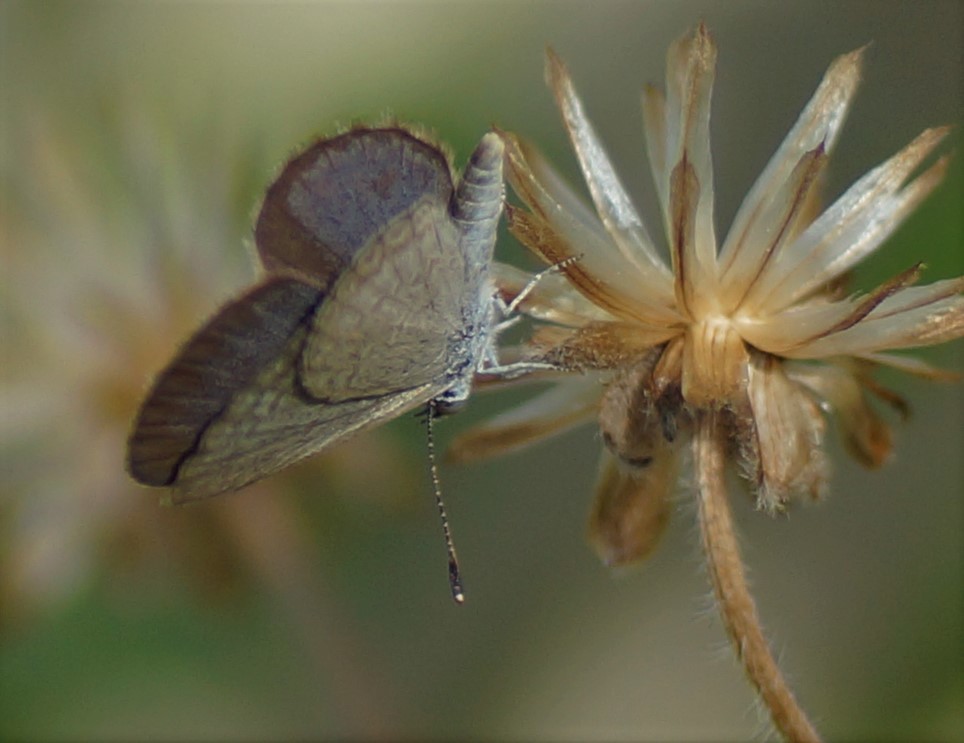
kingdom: Animalia
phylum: Arthropoda
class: Insecta
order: Lepidoptera
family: Lycaenidae
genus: Zizina
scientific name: Zizina labradus
